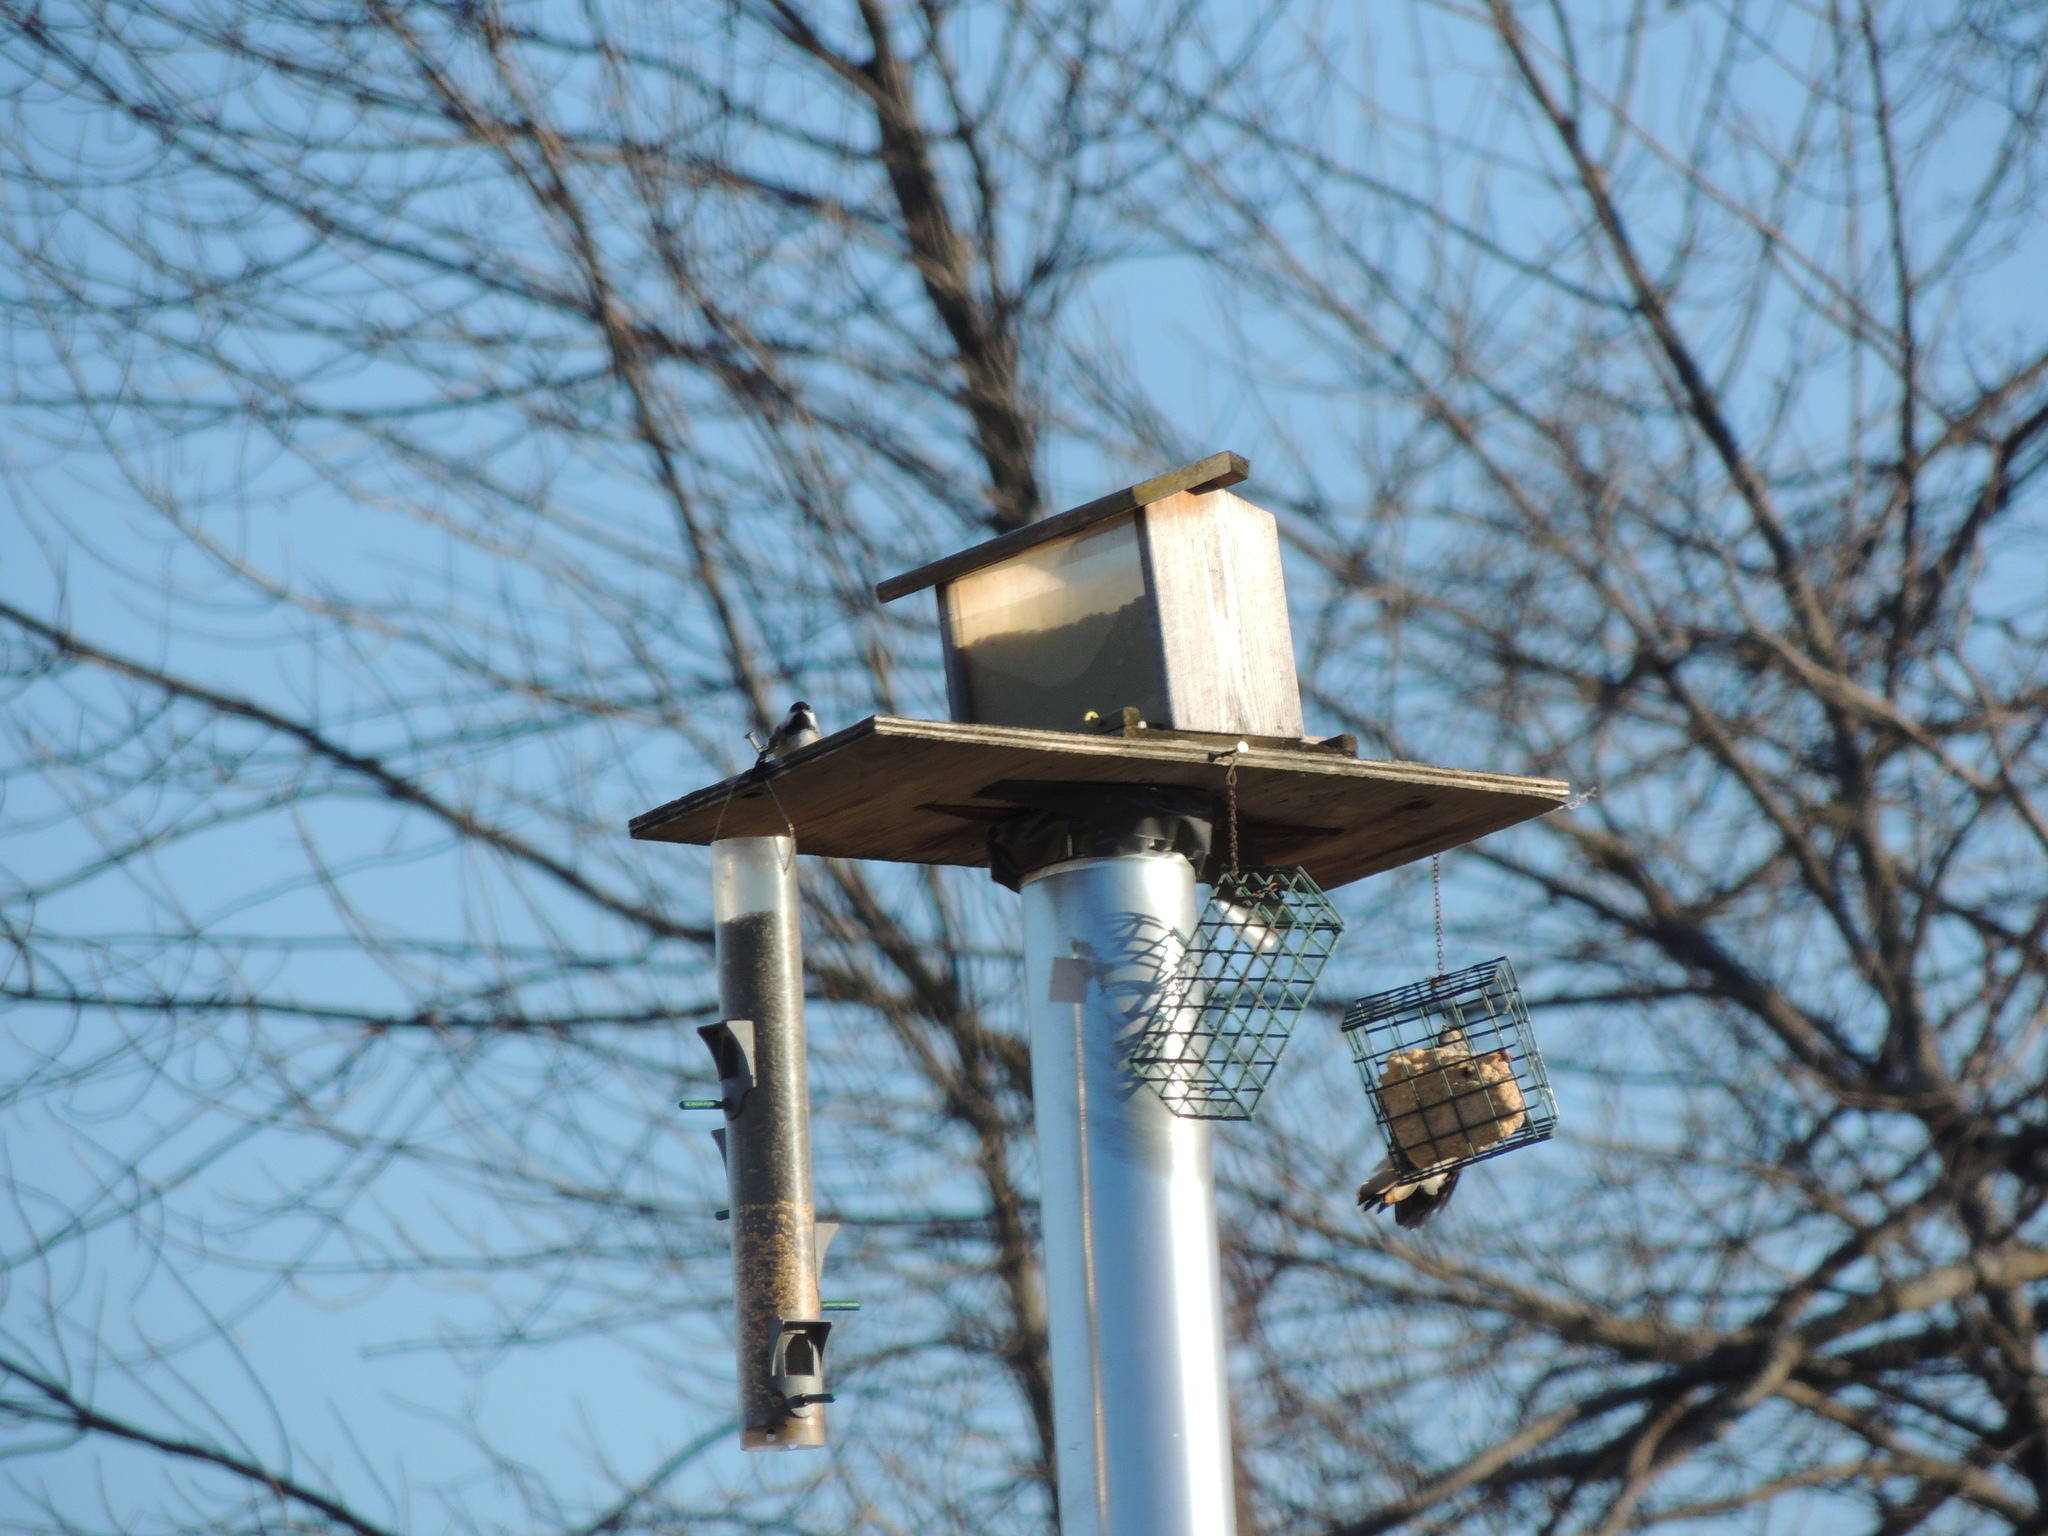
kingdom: Animalia
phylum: Chordata
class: Aves
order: Passeriformes
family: Paridae
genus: Poecile
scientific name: Poecile atricapillus
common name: Black-capped chickadee
